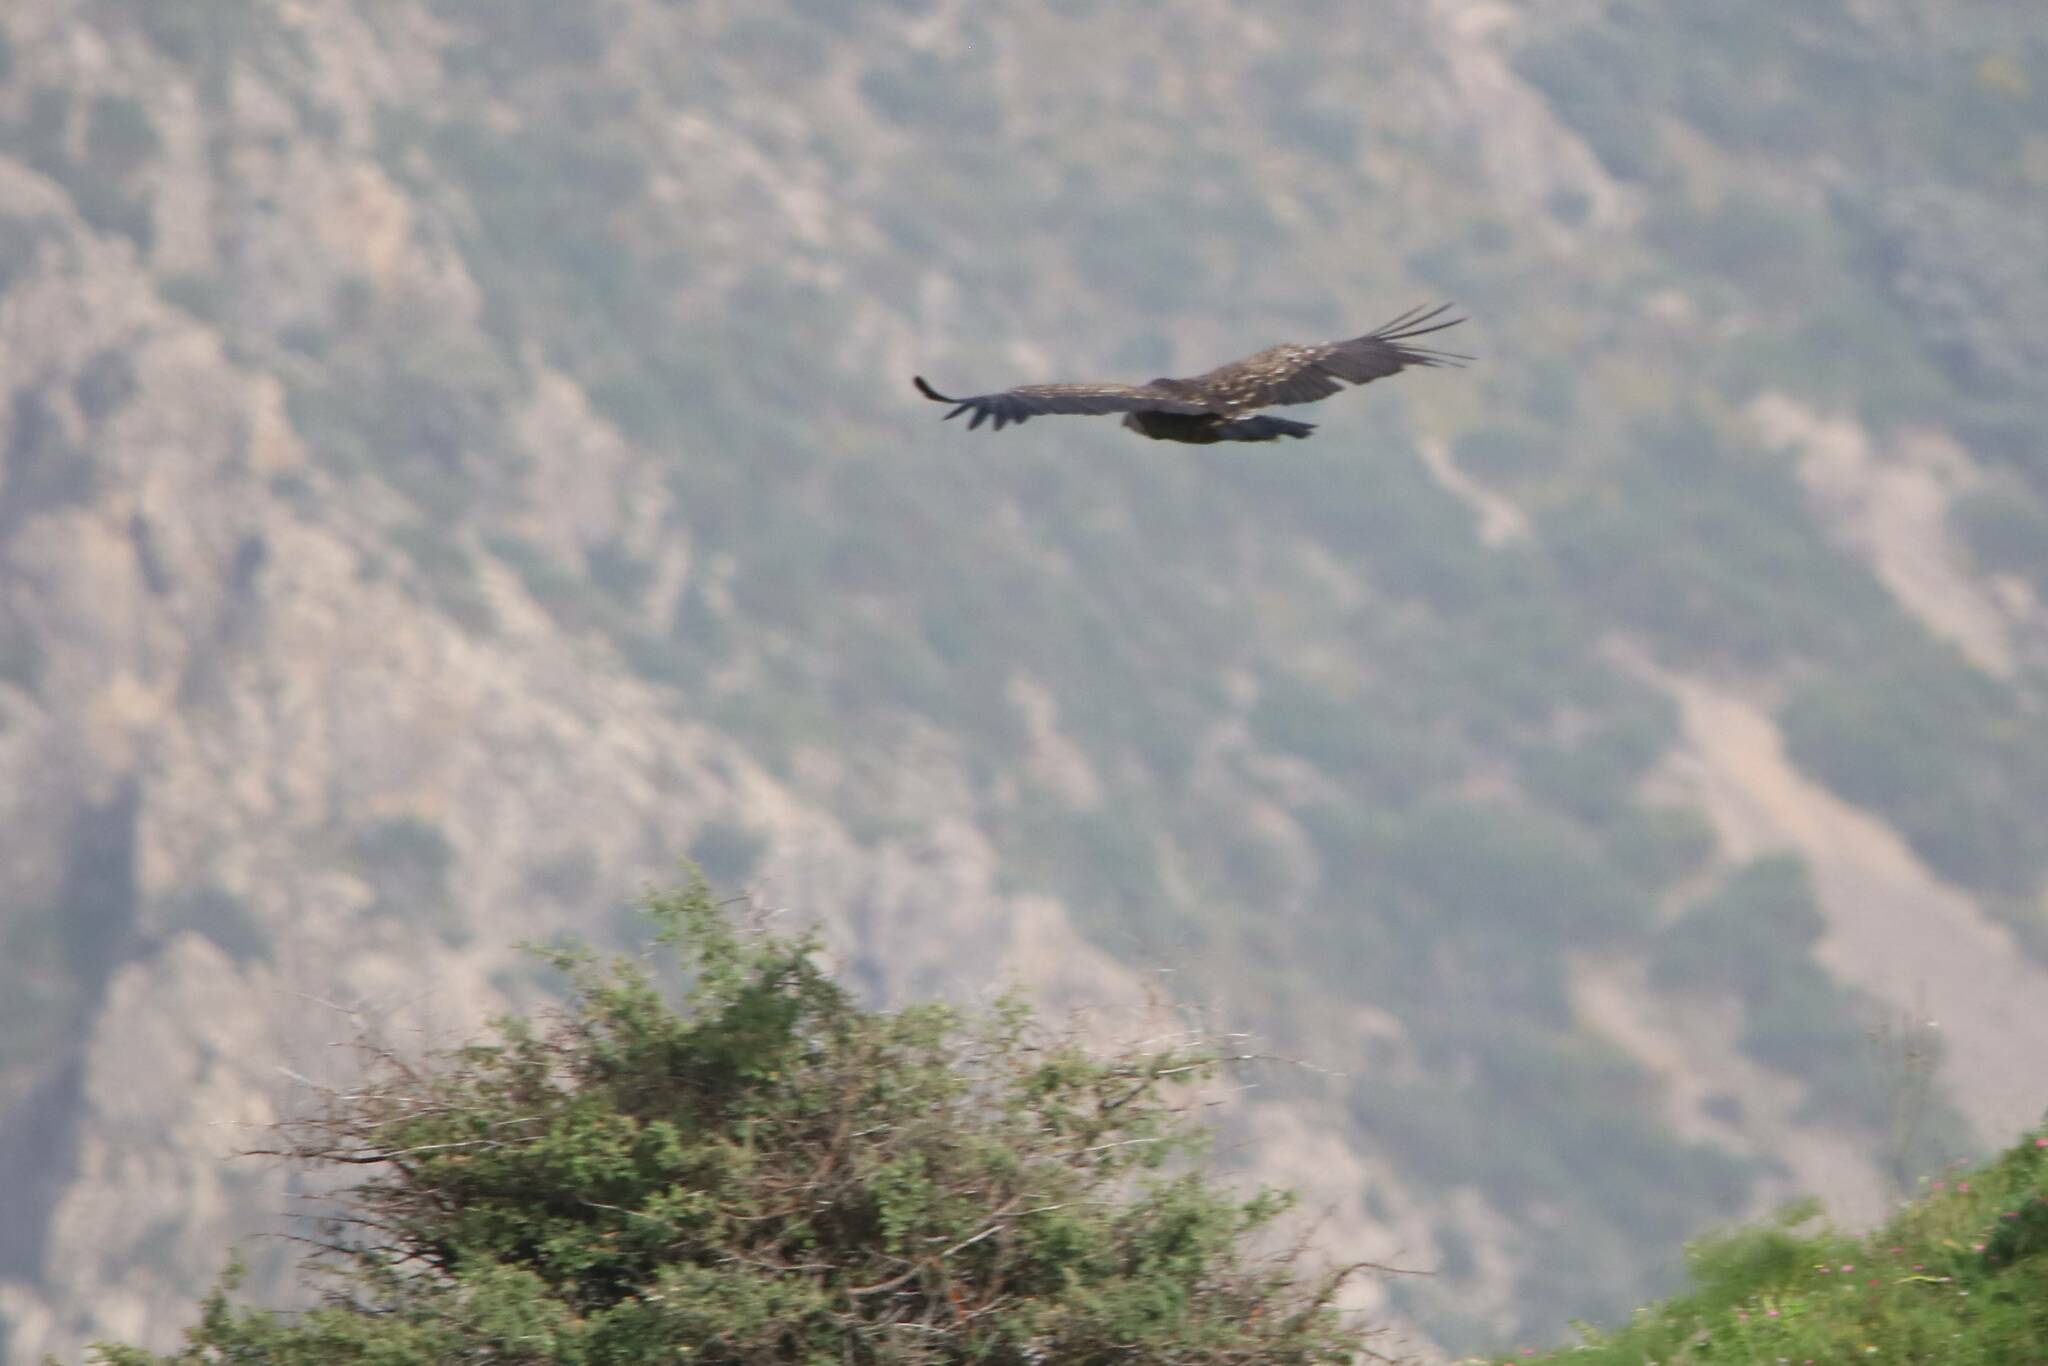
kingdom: Animalia
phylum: Chordata
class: Aves
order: Accipitriformes
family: Accipitridae
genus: Gyps
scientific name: Gyps rueppellii
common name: Rüppell's vulture
